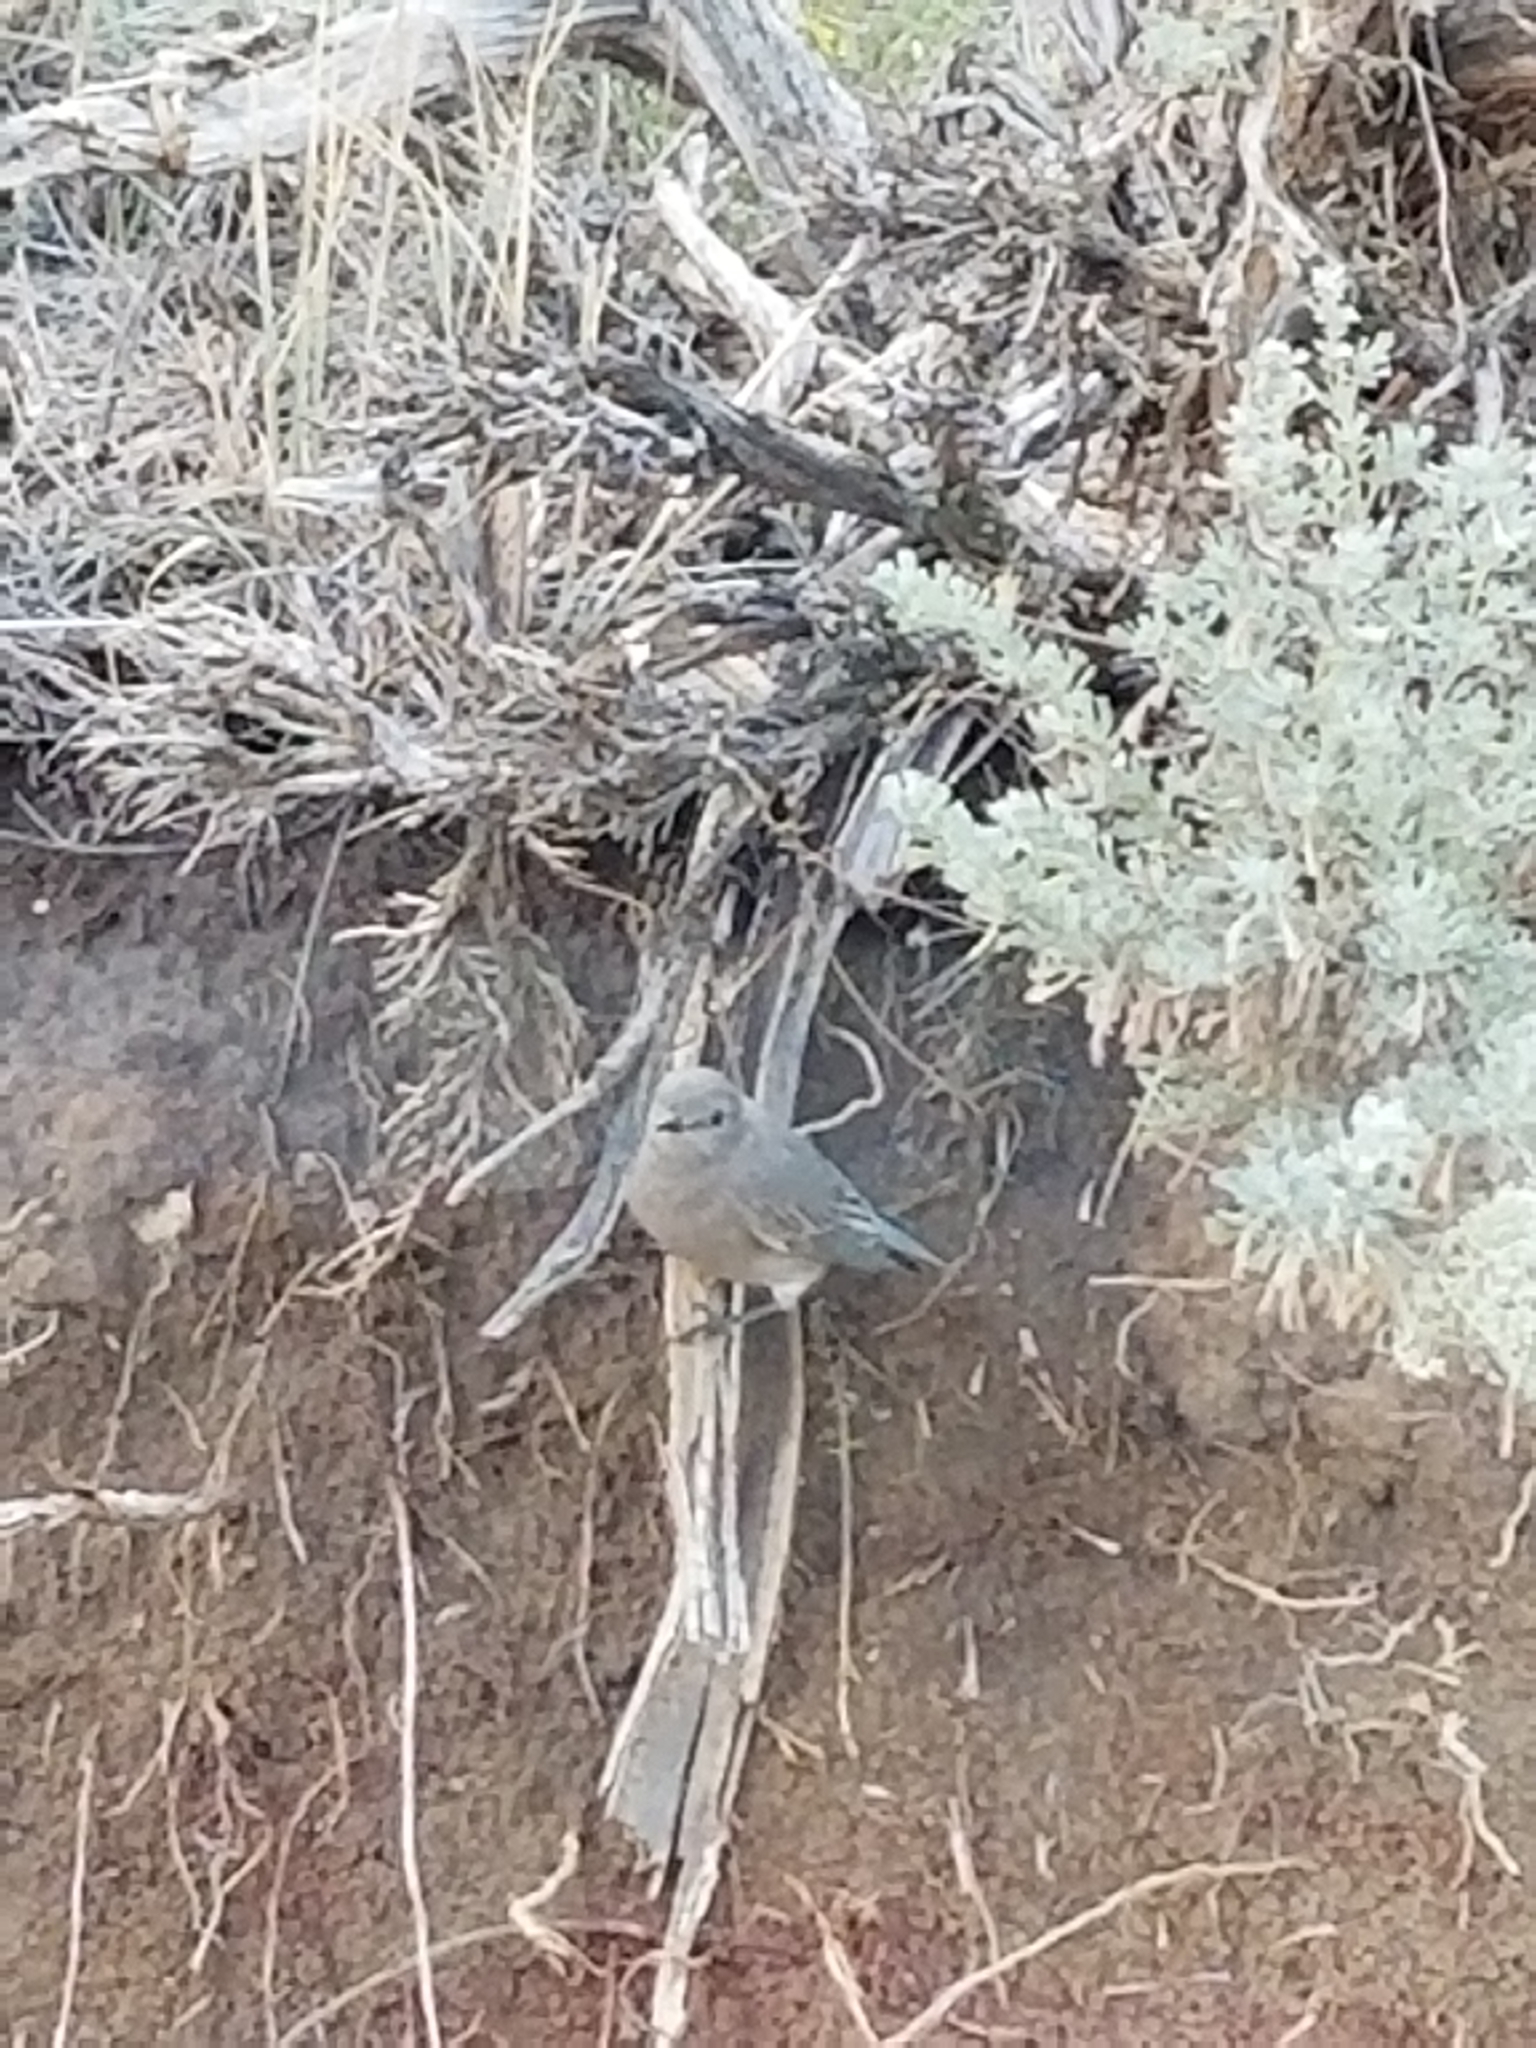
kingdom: Animalia
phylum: Chordata
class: Aves
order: Passeriformes
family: Turdidae
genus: Sialia
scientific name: Sialia currucoides
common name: Mountain bluebird
